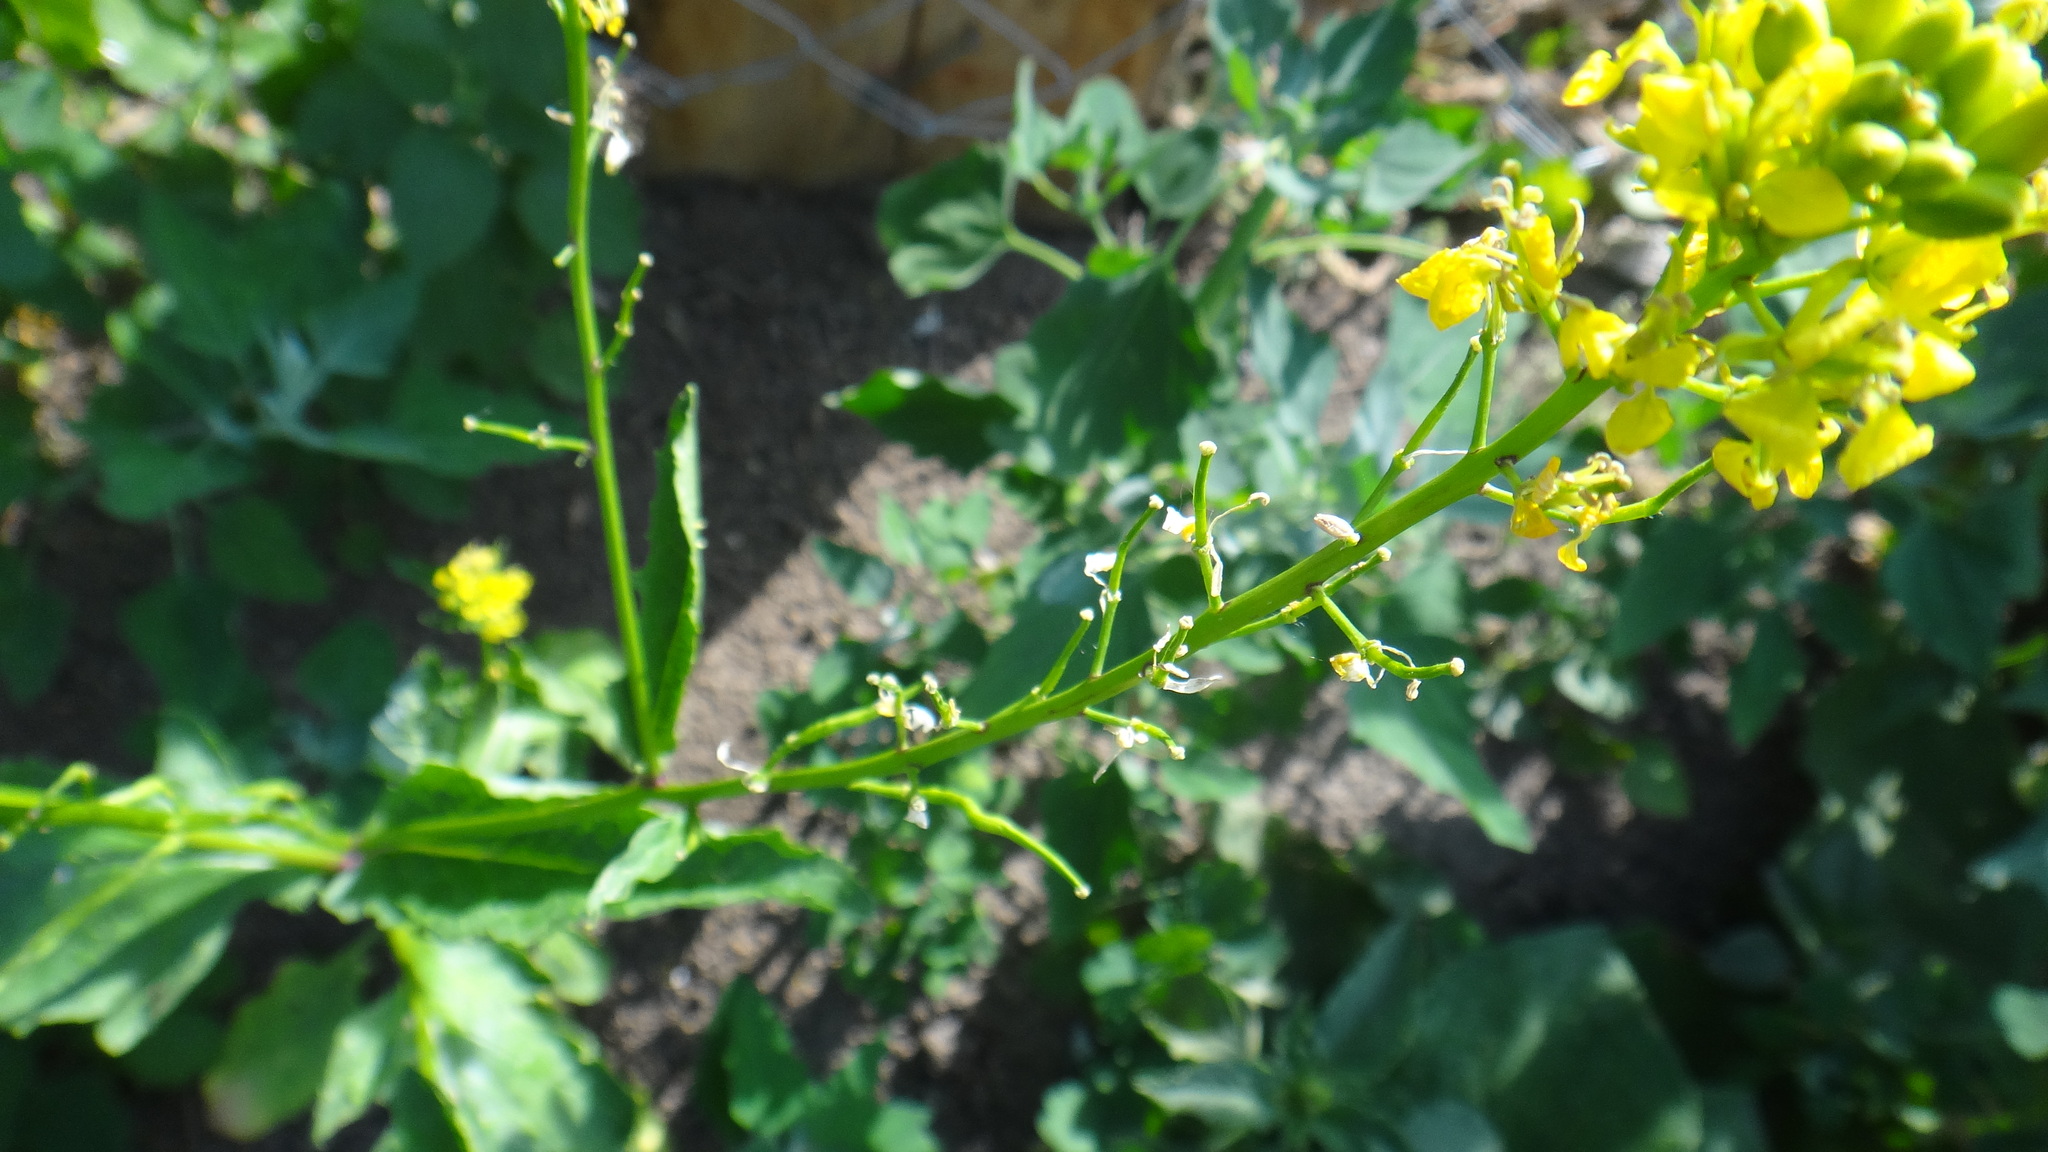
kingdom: Plantae
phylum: Tracheophyta
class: Magnoliopsida
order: Brassicales
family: Brassicaceae
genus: Sinapis
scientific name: Sinapis arvensis
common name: Charlock
